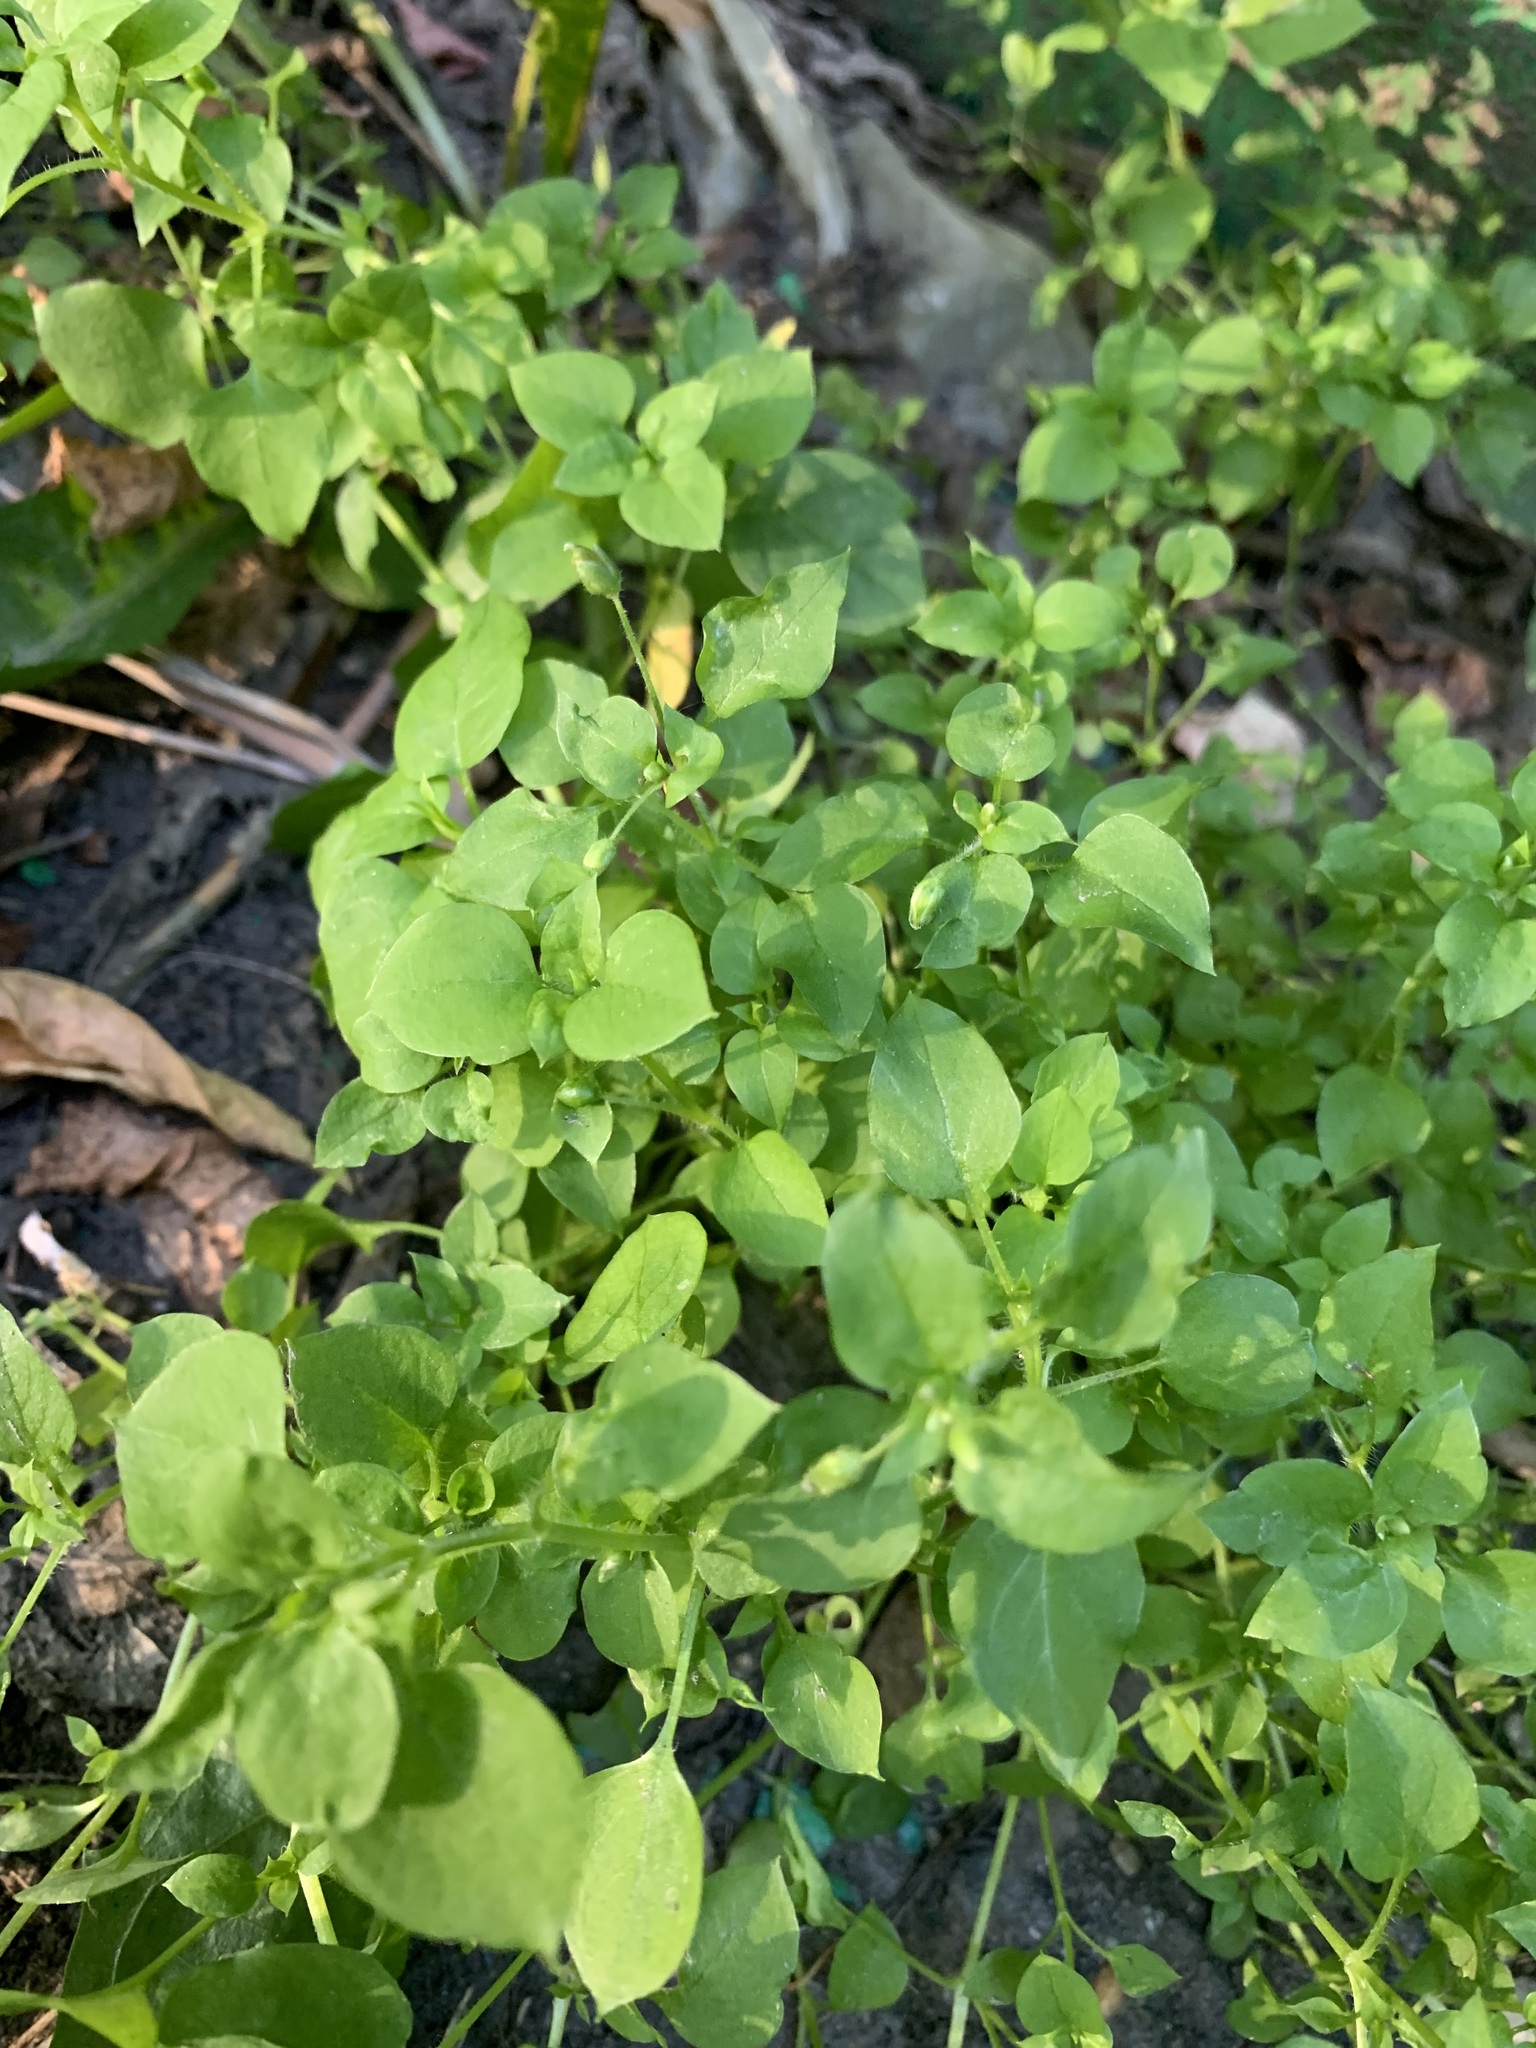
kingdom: Plantae
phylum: Tracheophyta
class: Magnoliopsida
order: Caryophyllales
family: Caryophyllaceae
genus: Stellaria
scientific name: Stellaria media
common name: Common chickweed
